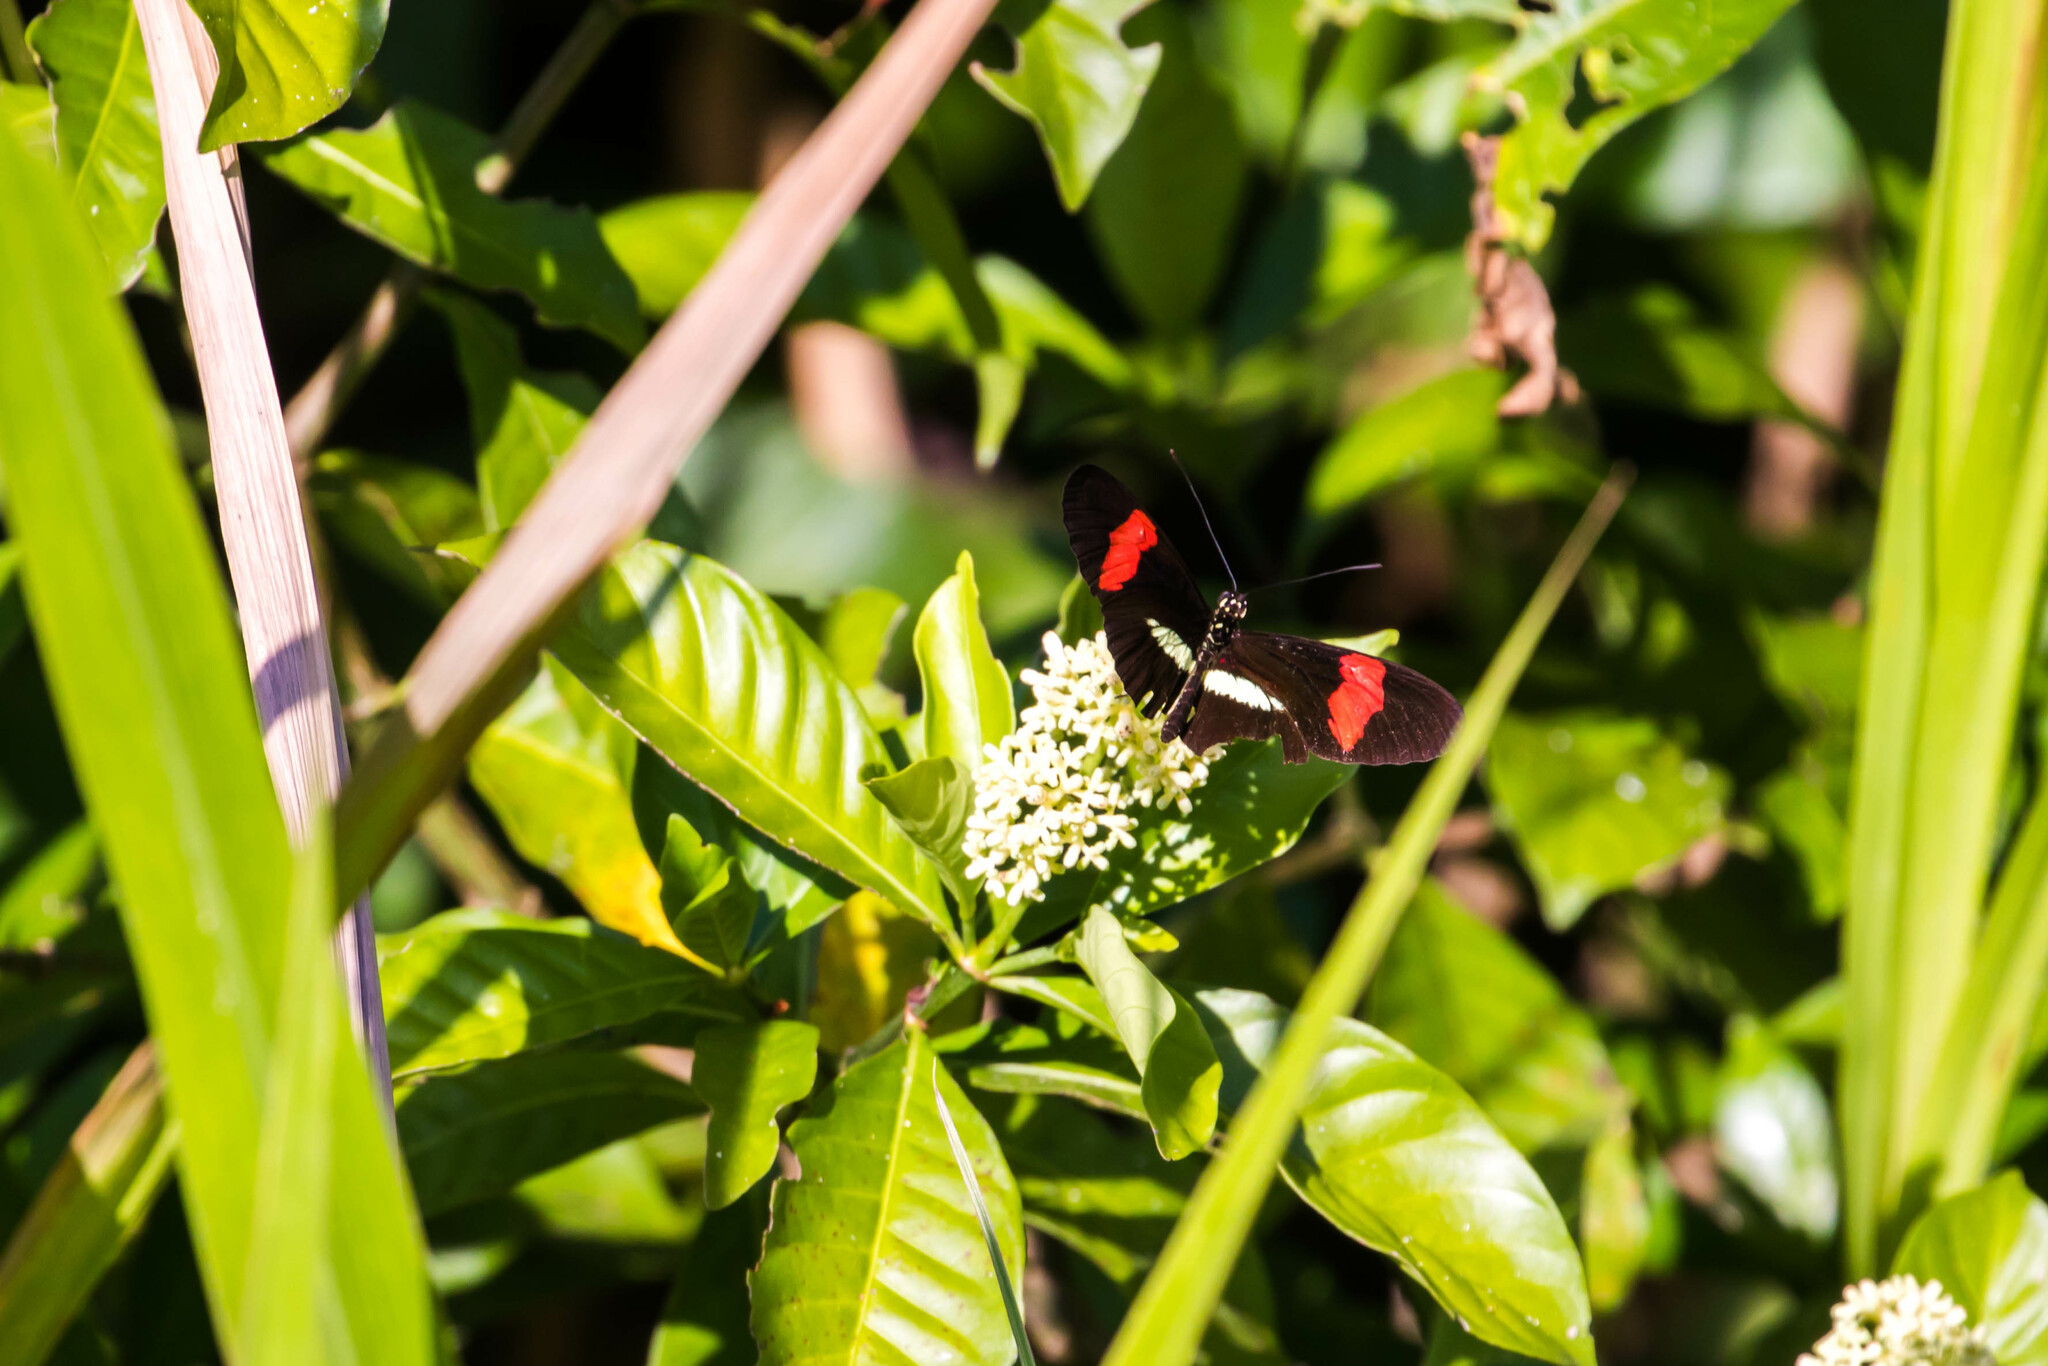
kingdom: Animalia
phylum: Arthropoda
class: Insecta
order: Lepidoptera
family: Nymphalidae
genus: Tirumala
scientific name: Tirumala petiverana
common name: Blue monarch
